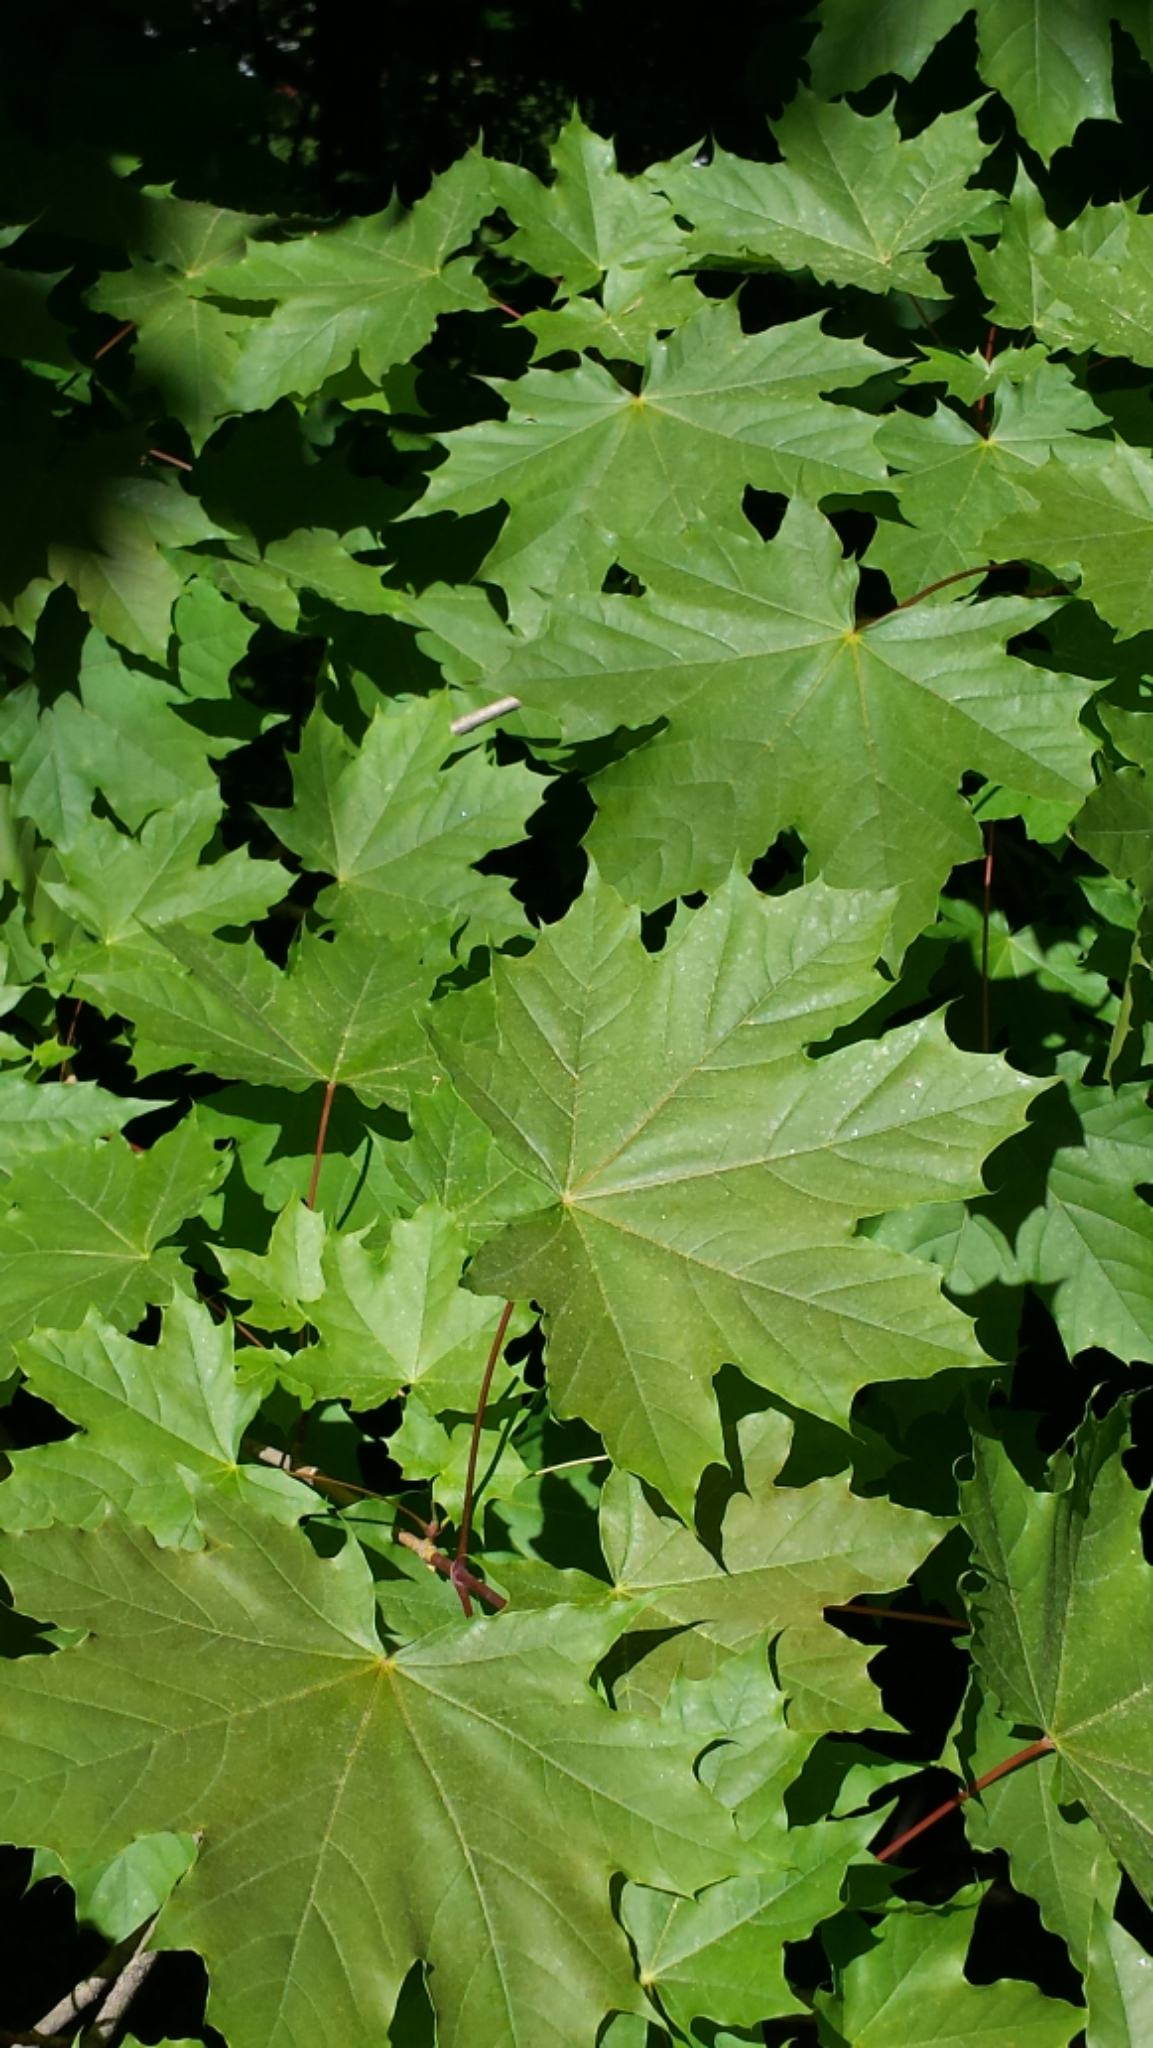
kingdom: Plantae
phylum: Tracheophyta
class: Magnoliopsida
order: Sapindales
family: Sapindaceae
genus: Acer
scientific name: Acer platanoides
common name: Norway maple
